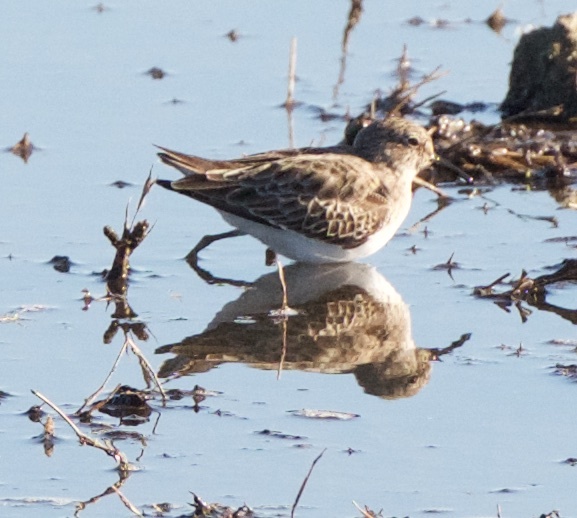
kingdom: Animalia
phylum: Chordata
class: Aves
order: Charadriiformes
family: Scolopacidae
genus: Calidris
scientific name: Calidris minutilla
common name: Least sandpiper
